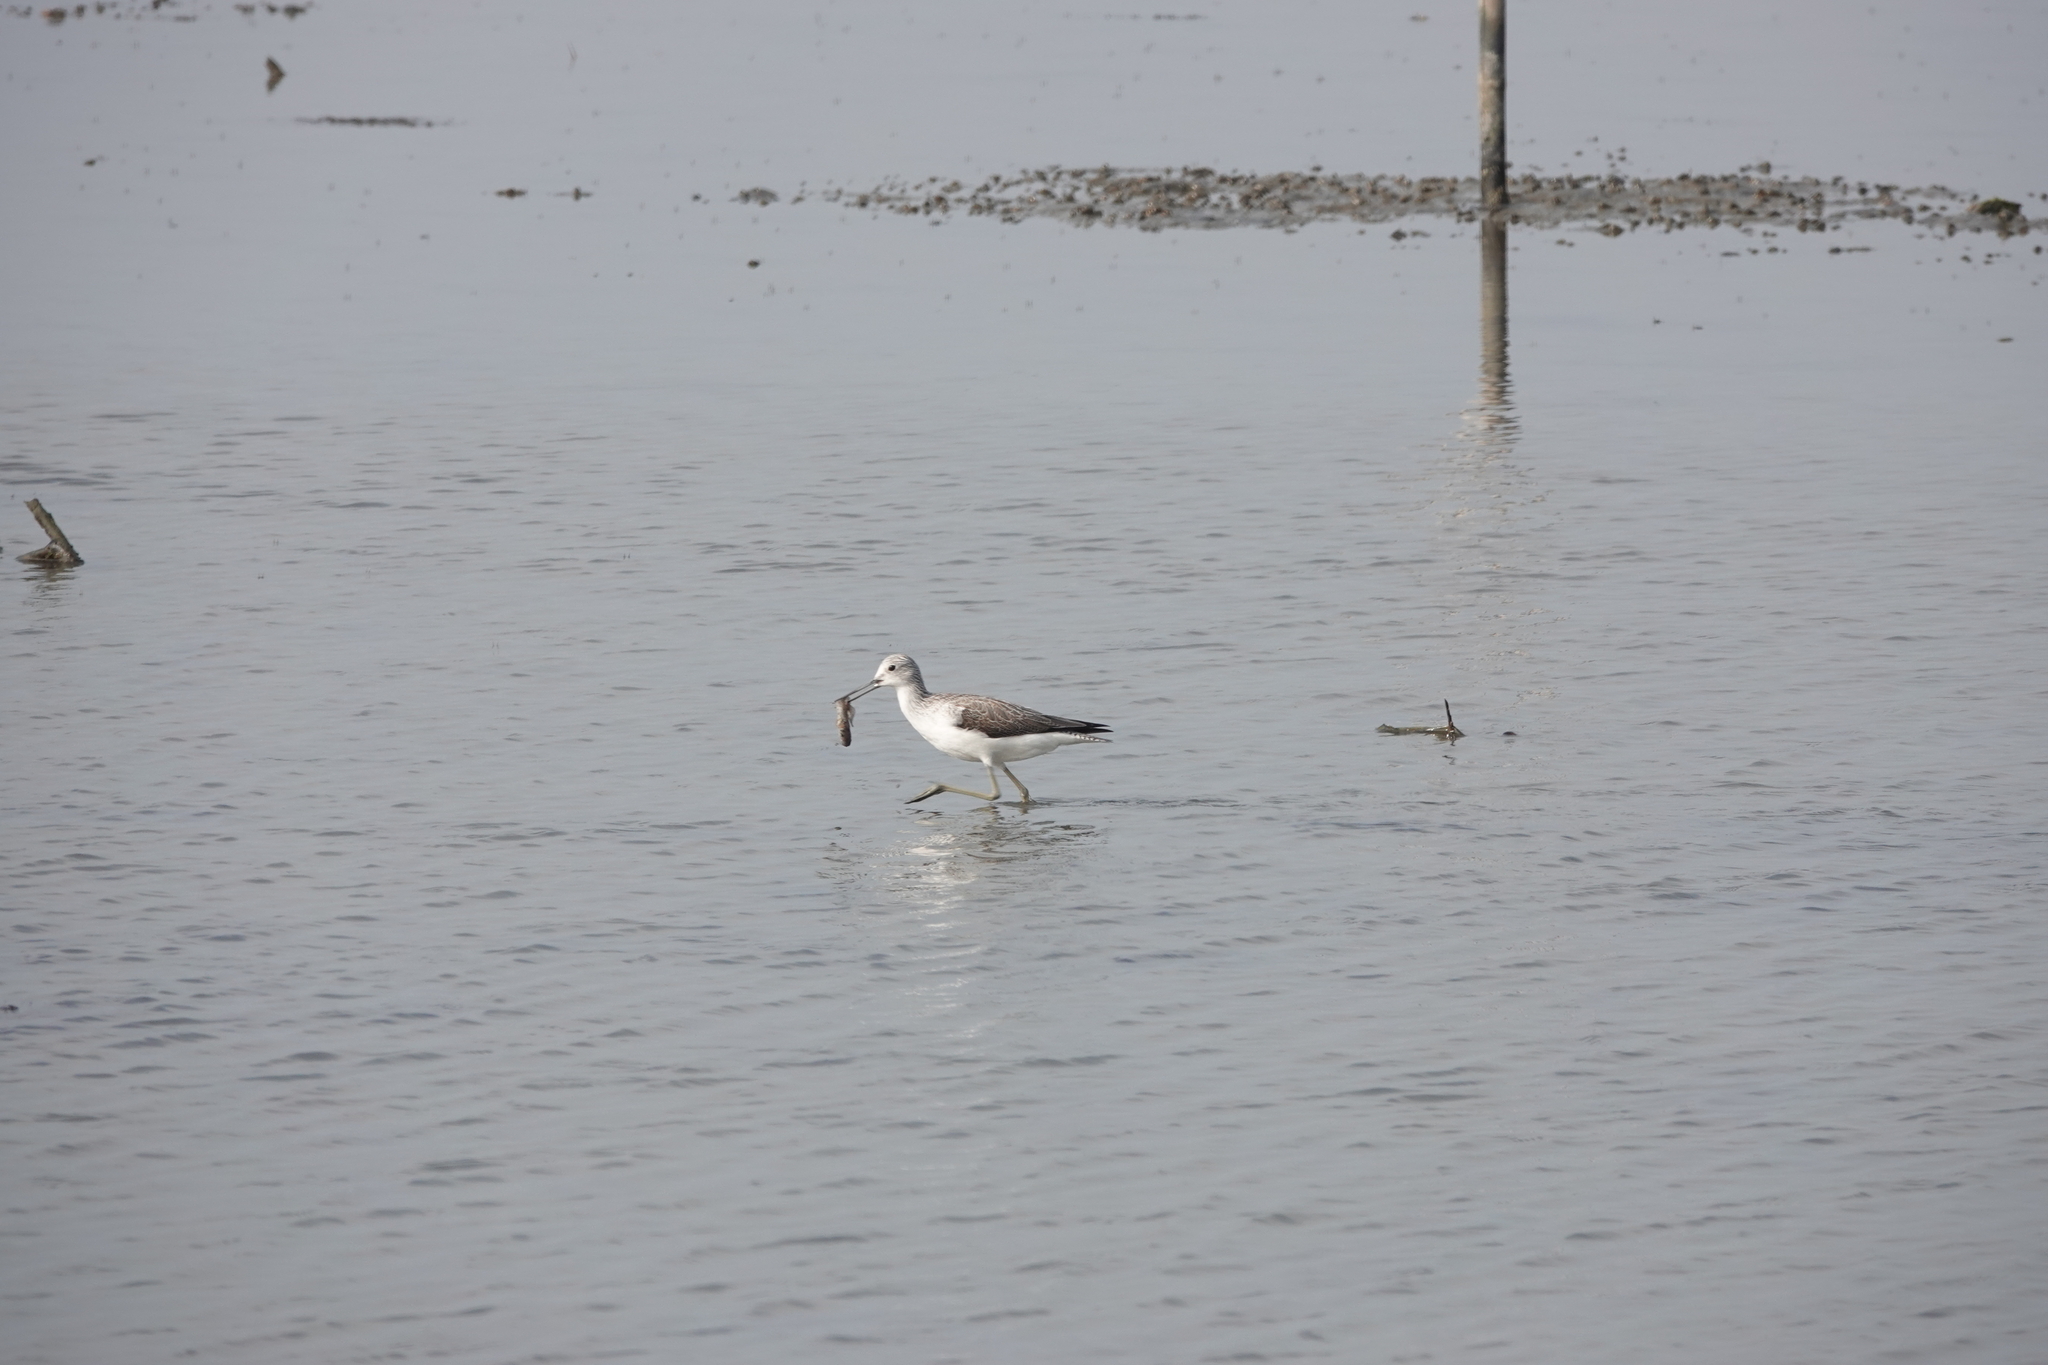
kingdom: Animalia
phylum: Chordata
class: Aves
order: Charadriiformes
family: Scolopacidae
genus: Tringa
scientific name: Tringa nebularia
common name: Common greenshank
